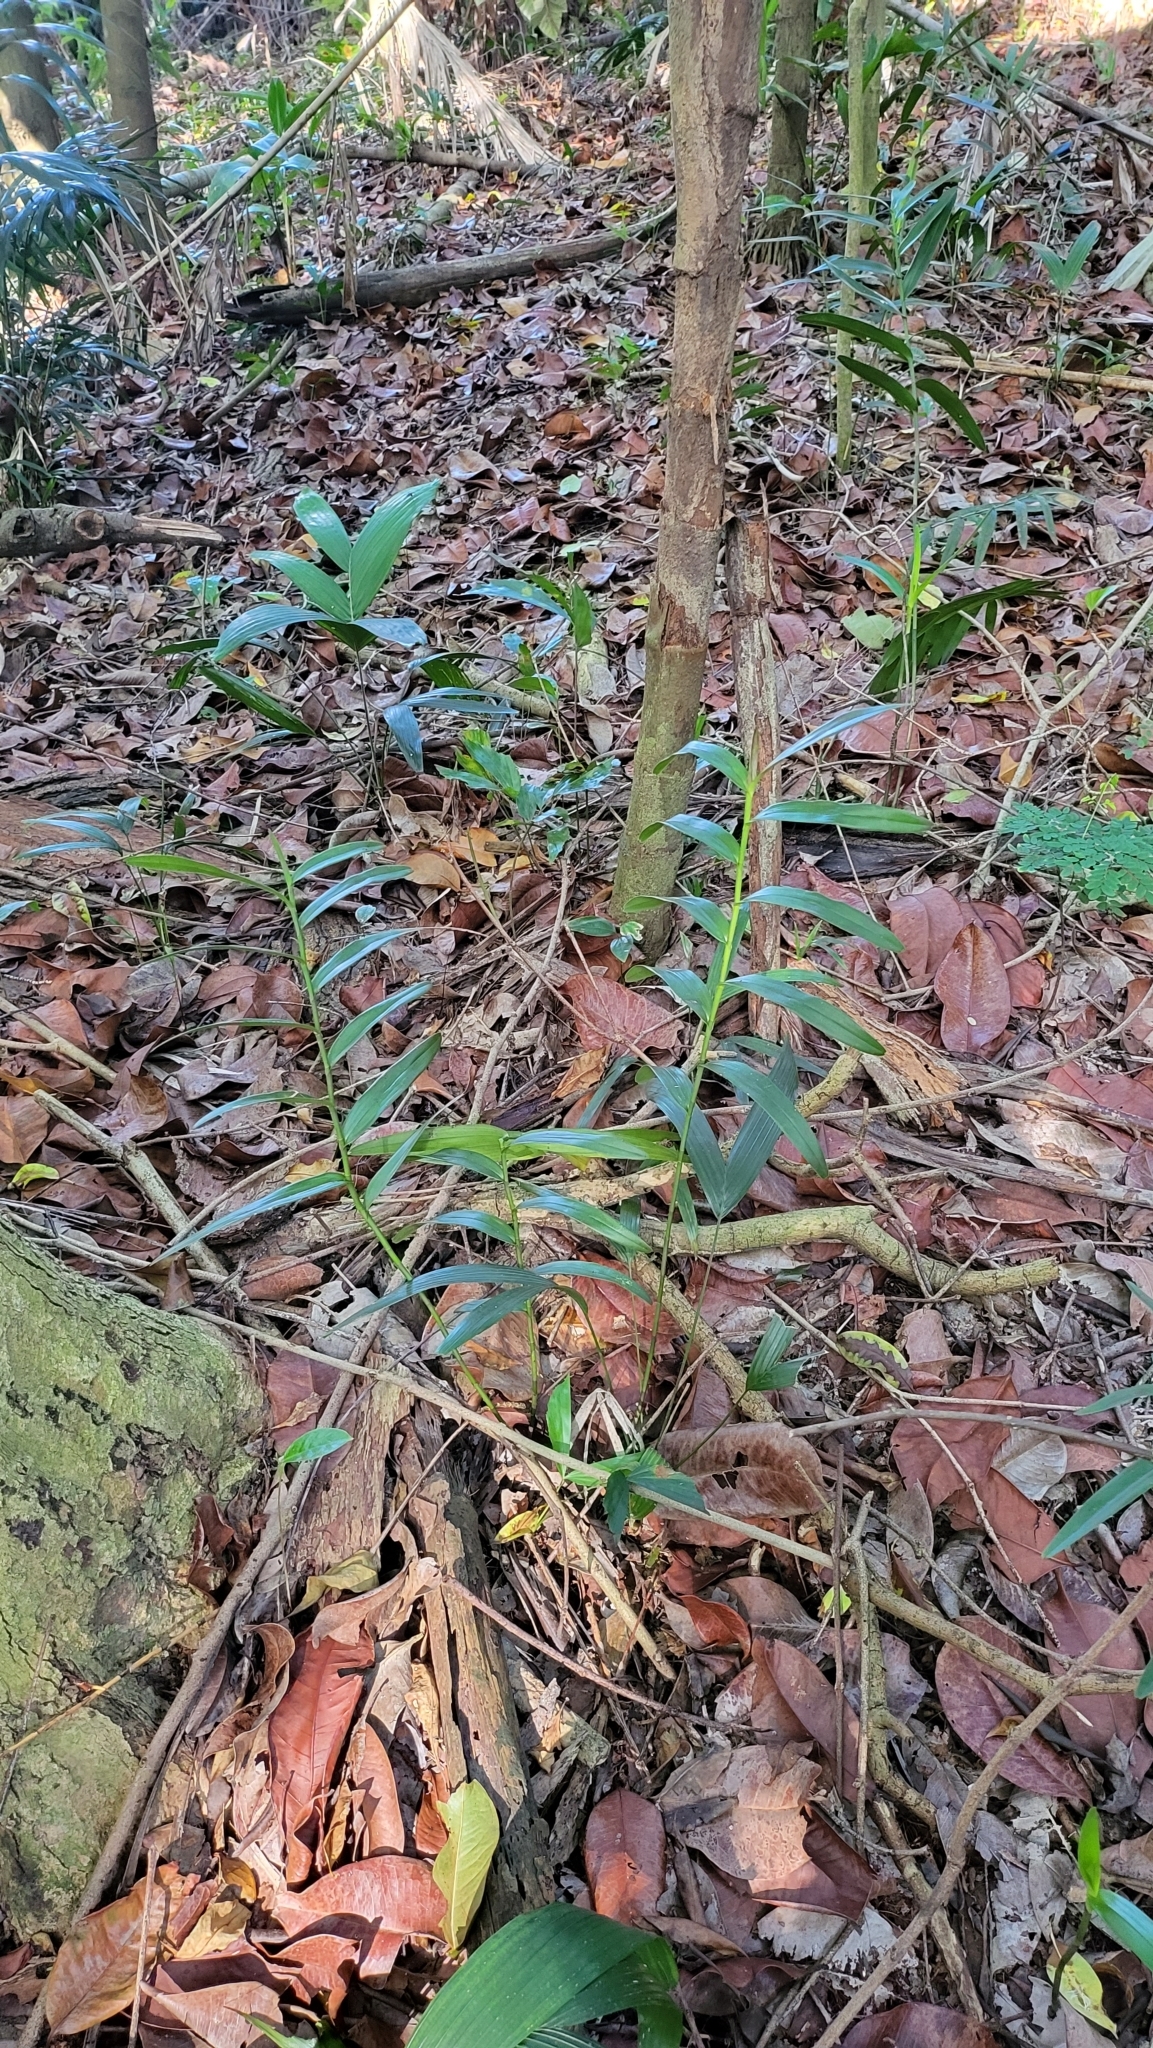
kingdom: Plantae
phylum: Tracheophyta
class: Liliopsida
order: Asparagales
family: Orchidaceae
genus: Bromheadia
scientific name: Bromheadia finlaysoniana
